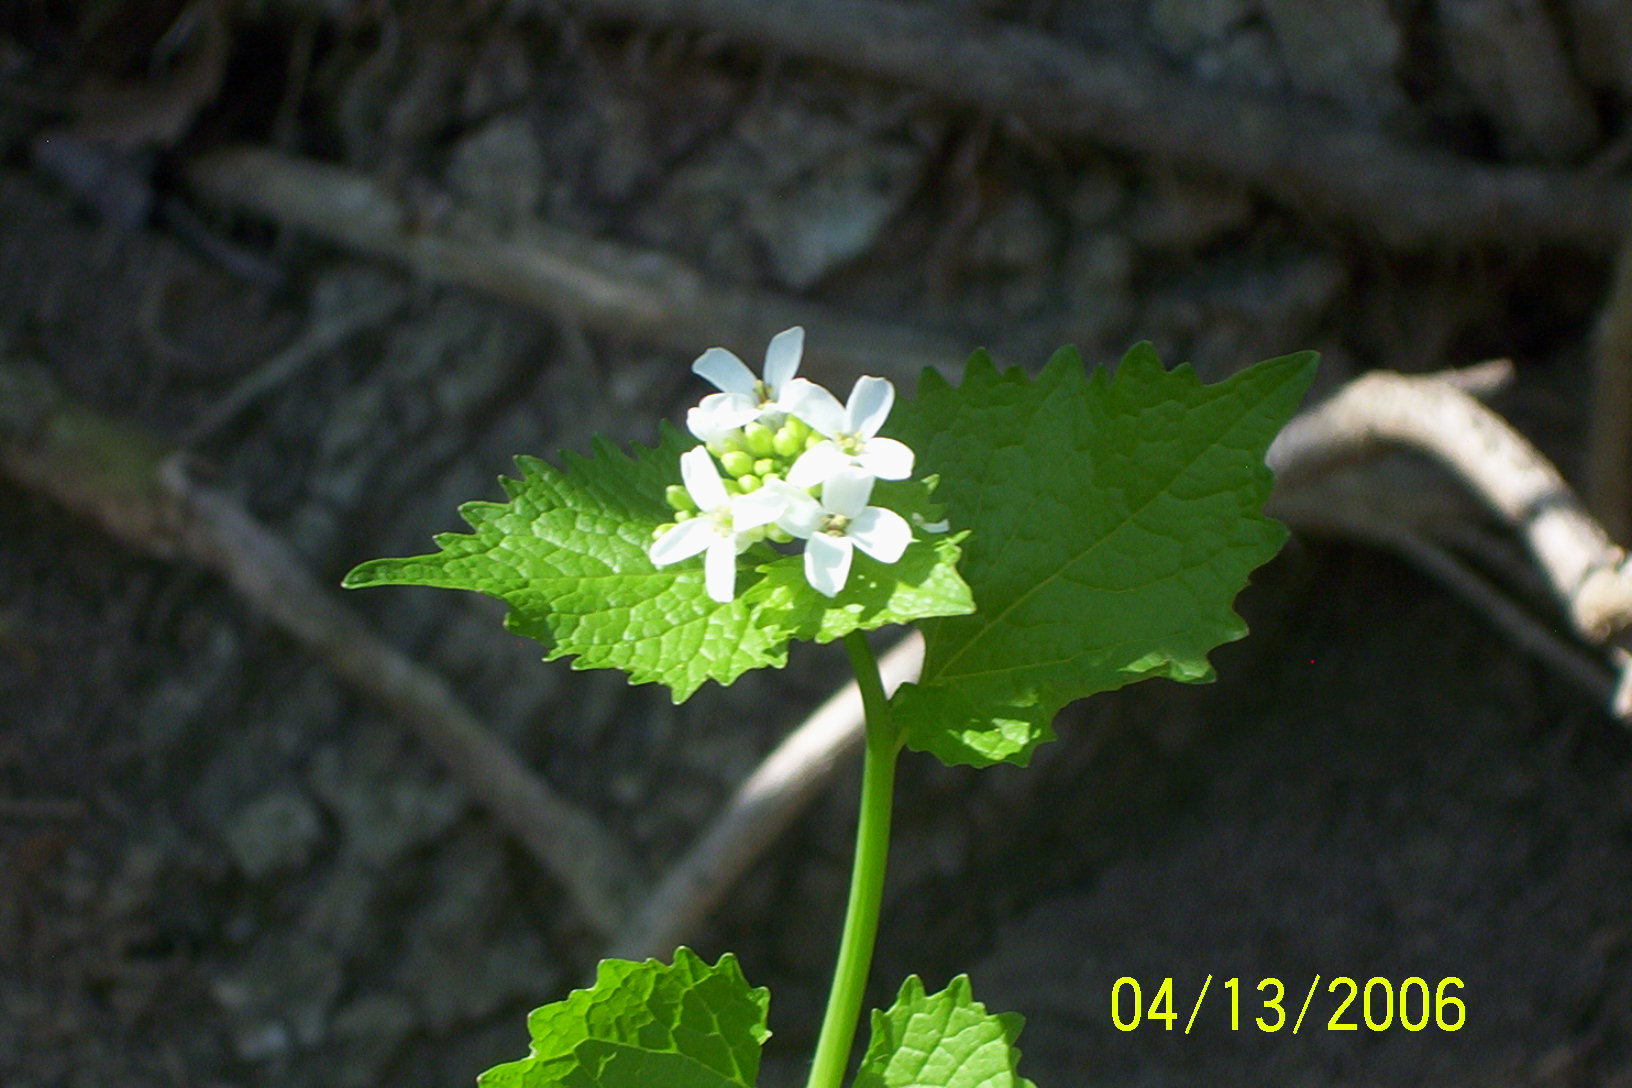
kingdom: Plantae
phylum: Tracheophyta
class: Magnoliopsida
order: Brassicales
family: Brassicaceae
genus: Alliaria
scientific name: Alliaria petiolata
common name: Garlic mustard
